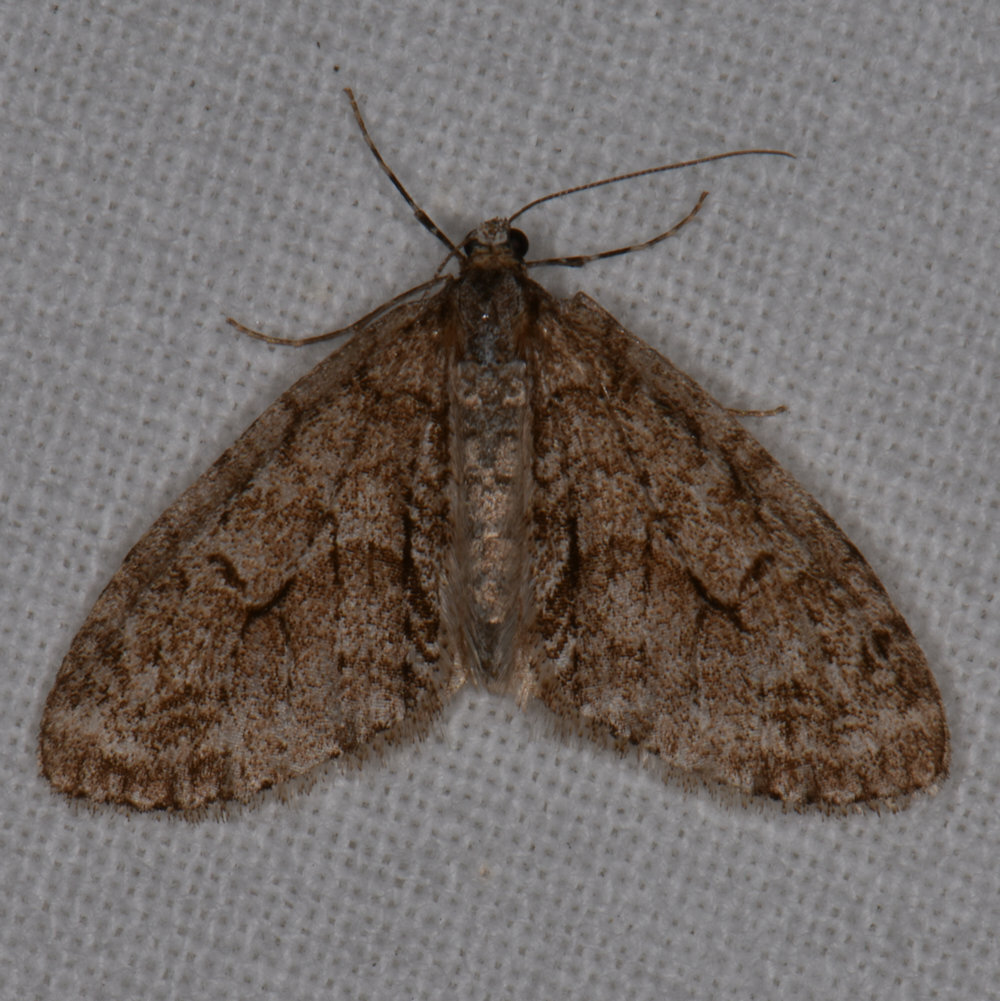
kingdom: Animalia
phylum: Arthropoda
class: Insecta
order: Lepidoptera
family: Geometridae
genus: Cladara
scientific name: Cladara limitaria
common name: Mottled gray carpet
